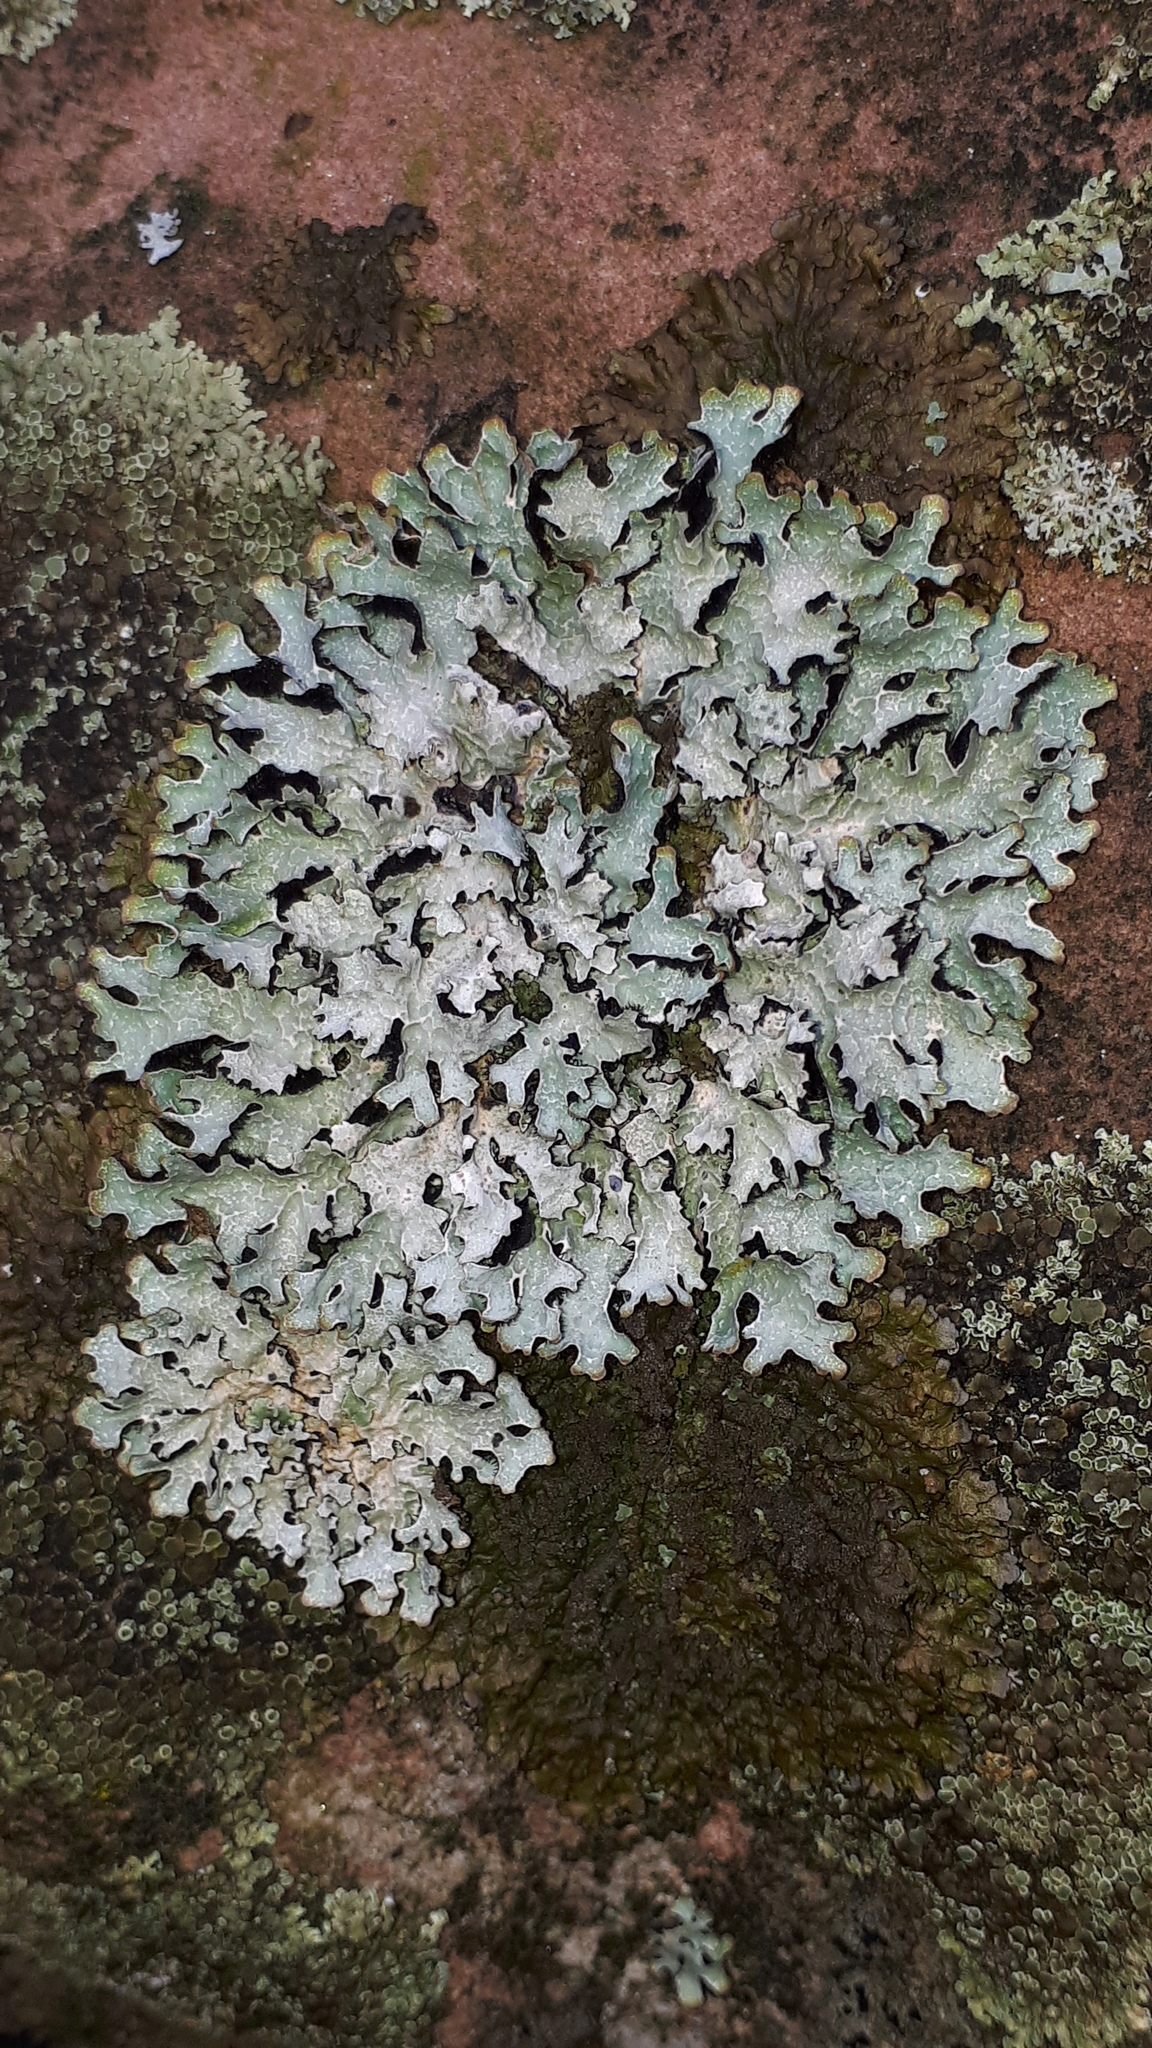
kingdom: Fungi
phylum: Ascomycota
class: Lecanoromycetes
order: Lecanorales
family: Parmeliaceae
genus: Parmelia
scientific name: Parmelia sulcata
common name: Netted shield lichen
